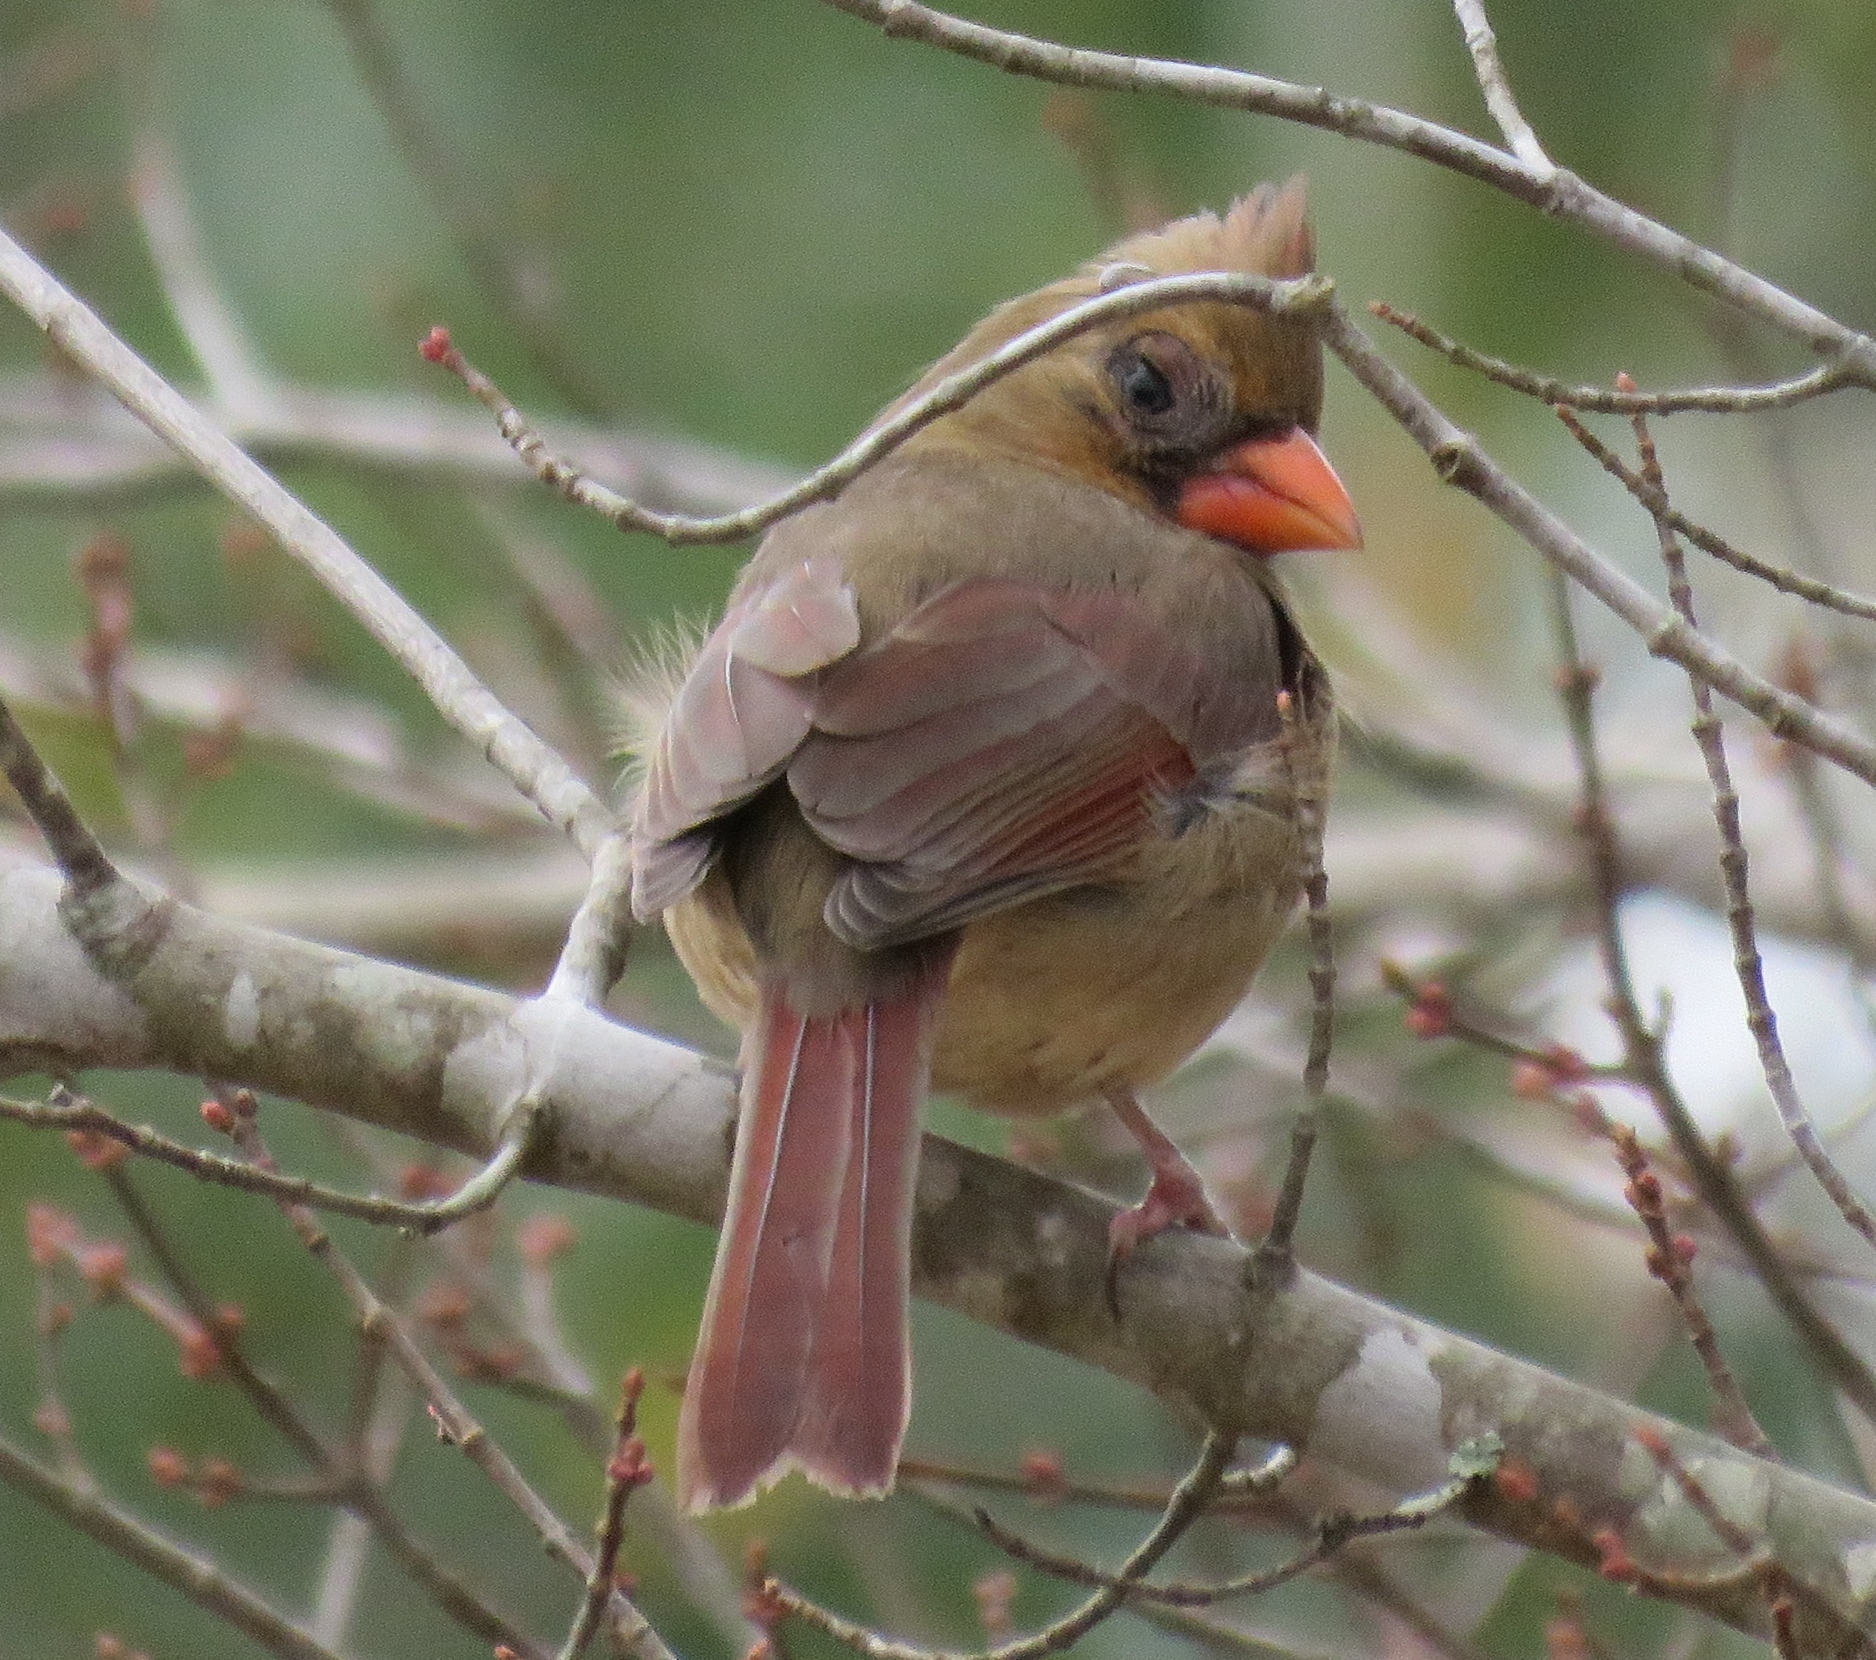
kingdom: Animalia
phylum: Chordata
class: Aves
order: Passeriformes
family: Cardinalidae
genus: Cardinalis
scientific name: Cardinalis cardinalis
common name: Northern cardinal
